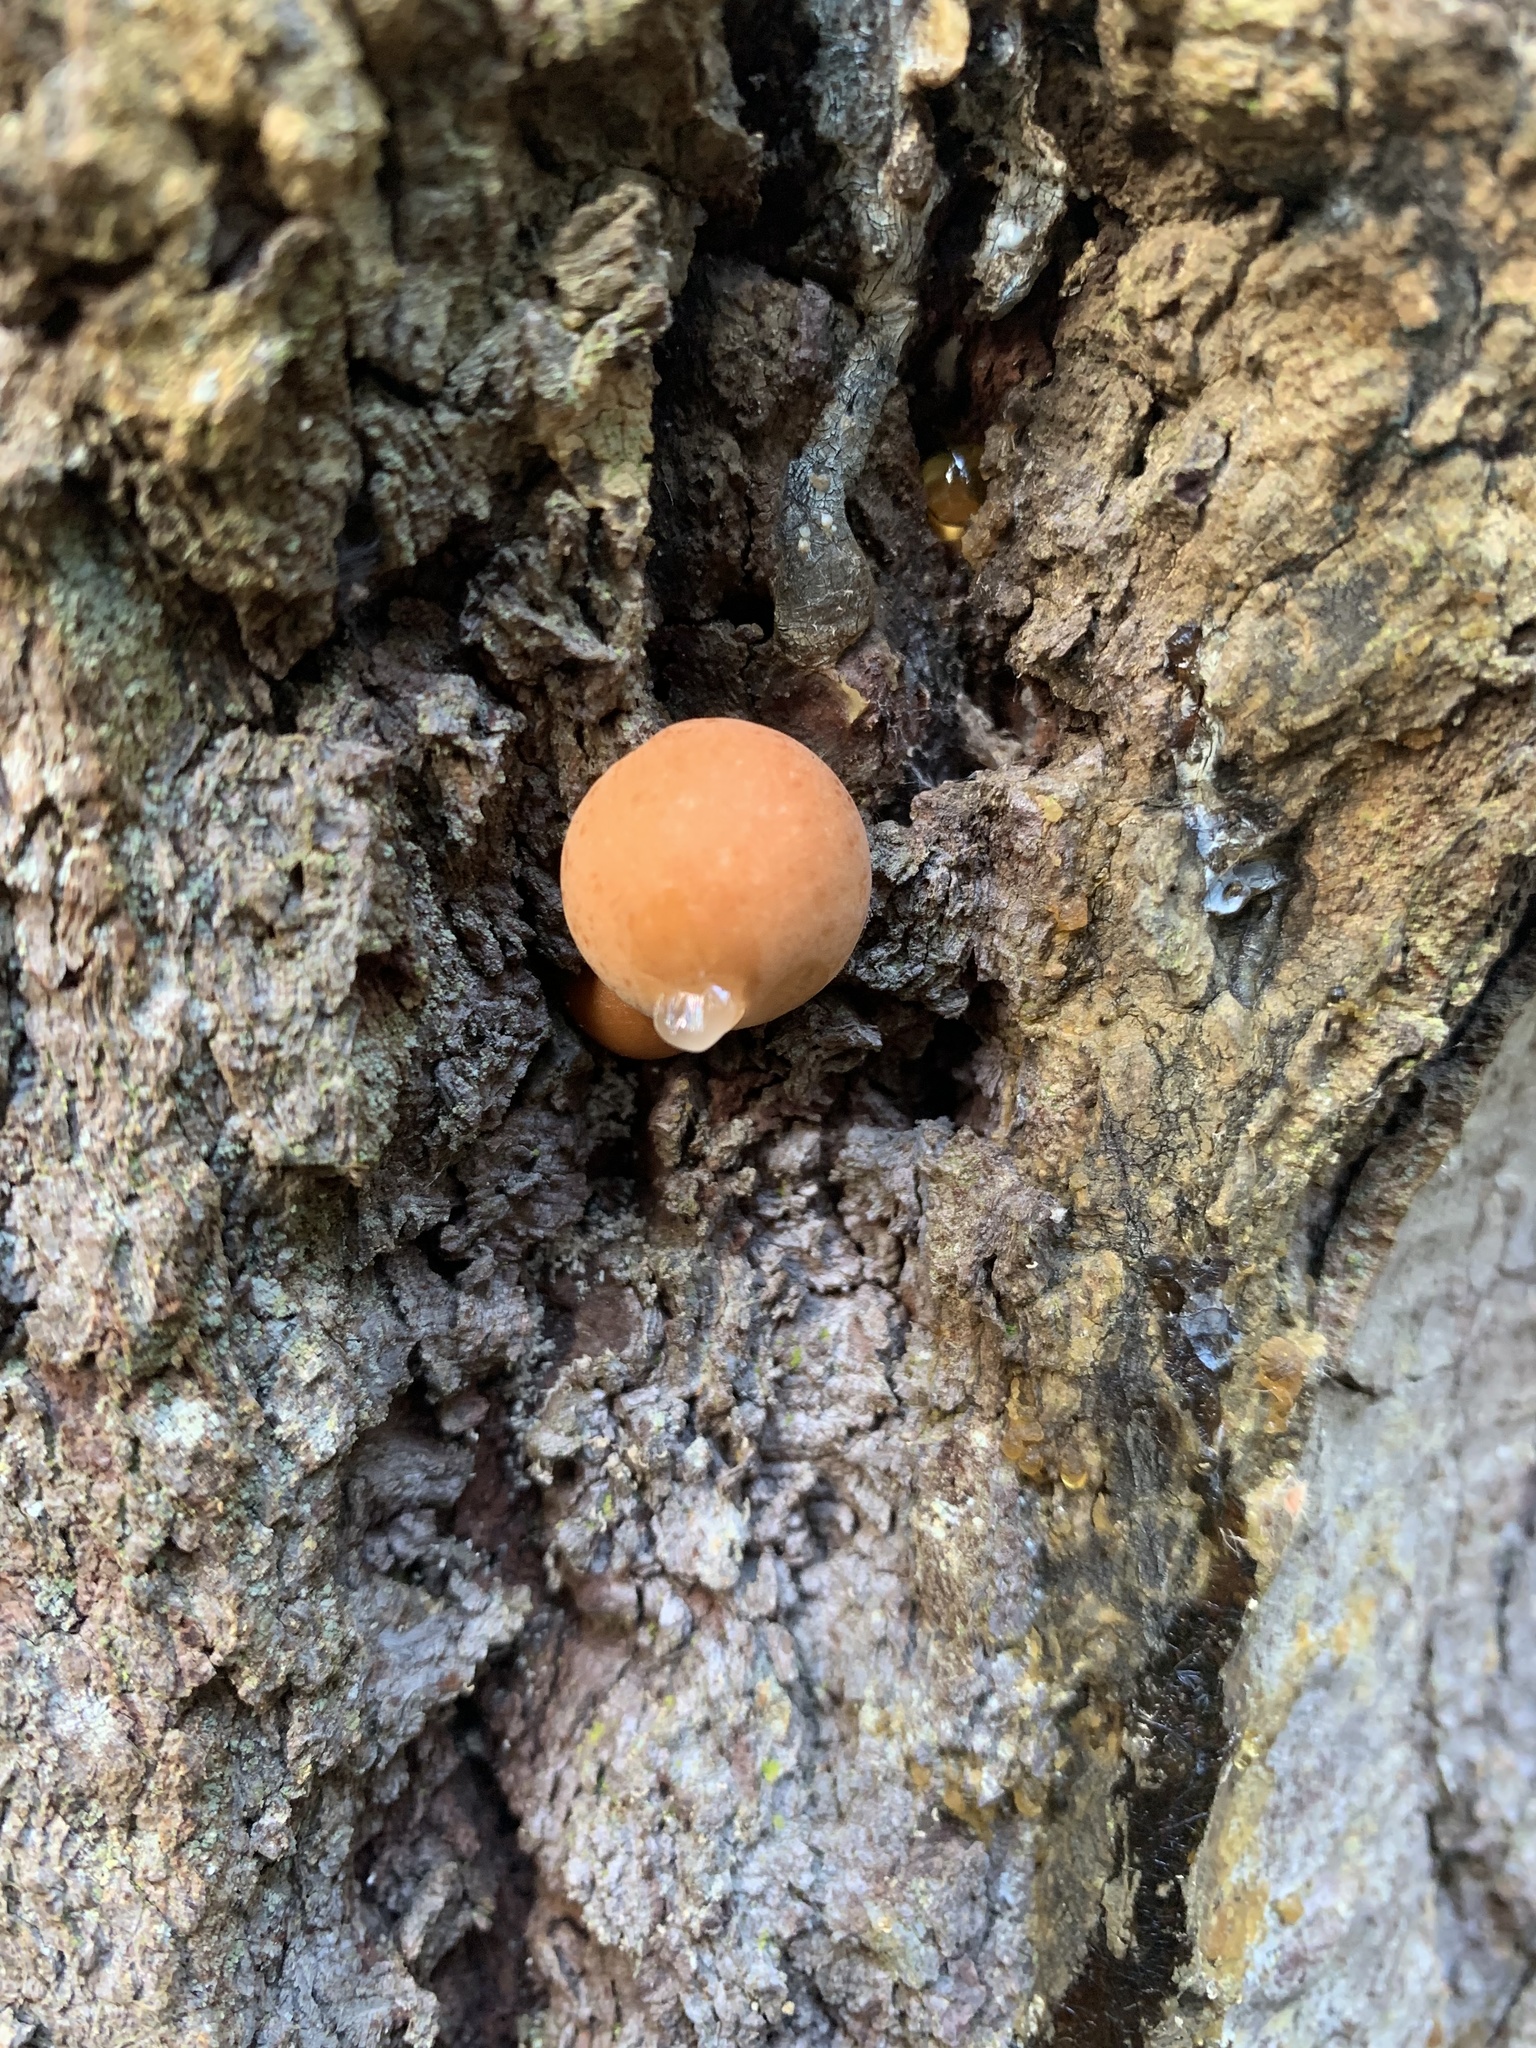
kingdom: Fungi
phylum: Basidiomycota
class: Agaricomycetes
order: Polyporales
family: Polyporaceae
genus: Cryptoporus
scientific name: Cryptoporus volvatus
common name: Veiled polypore
